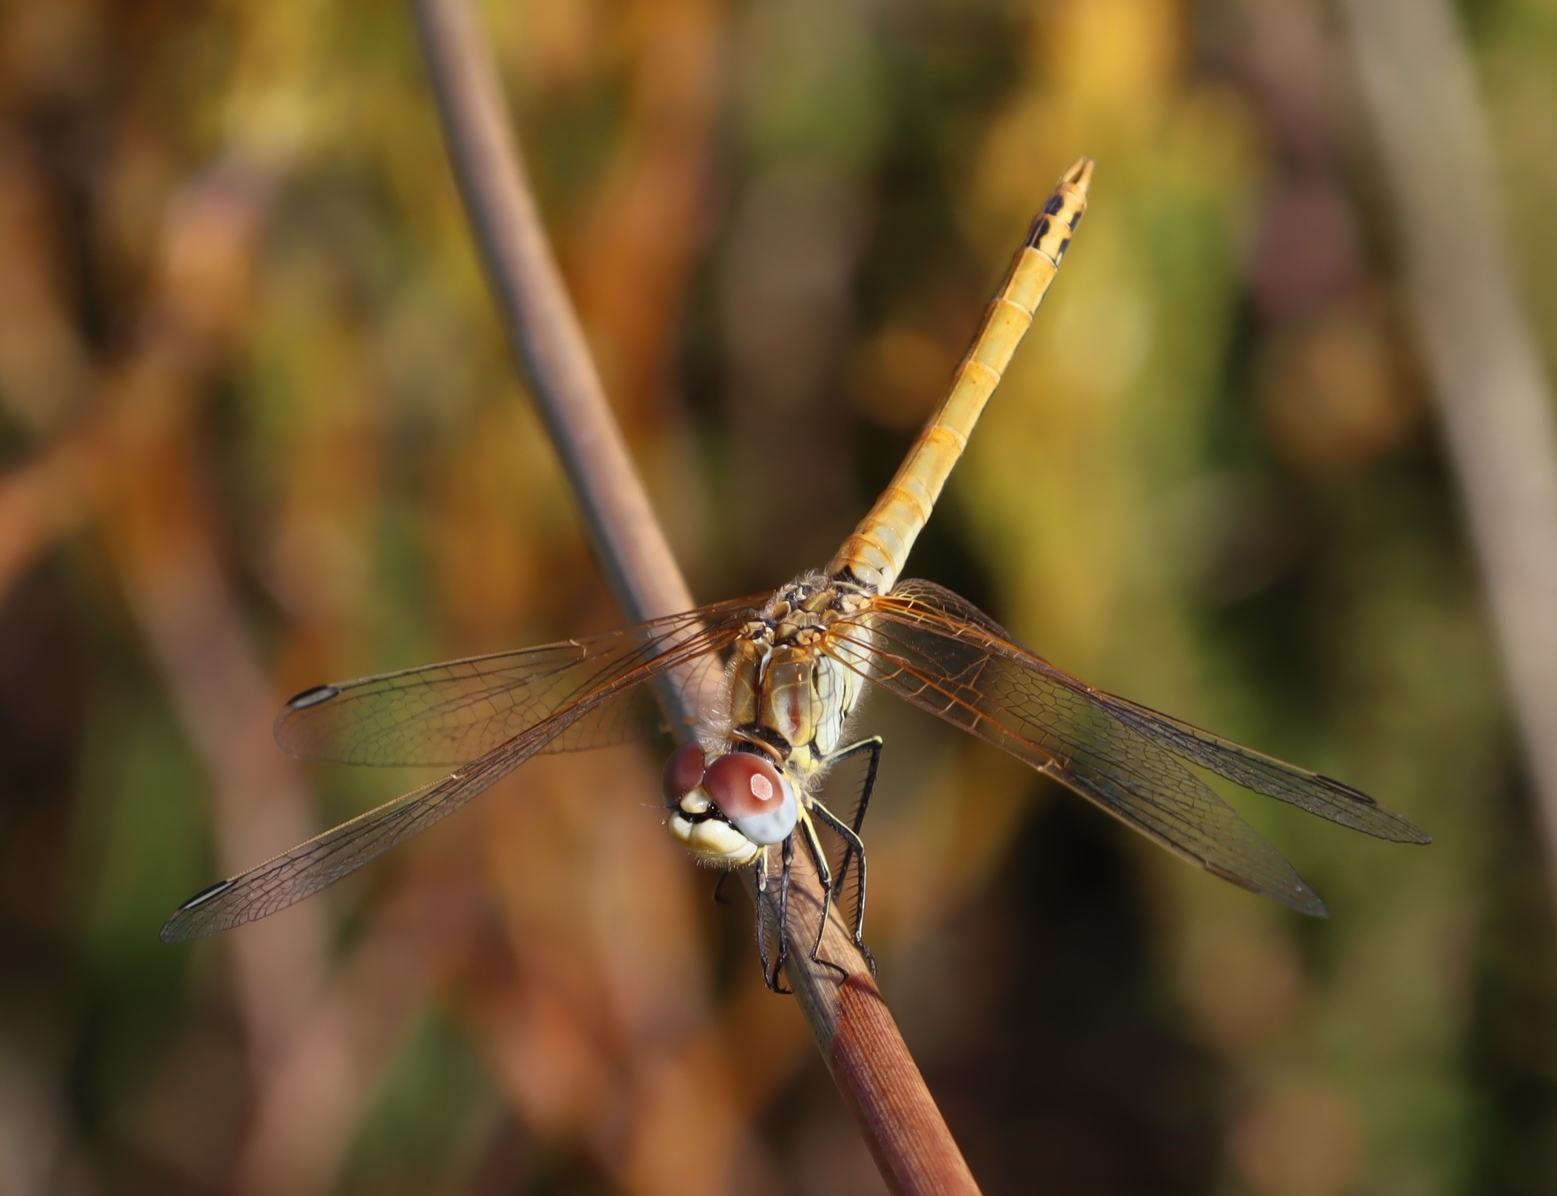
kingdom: Animalia
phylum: Arthropoda
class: Insecta
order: Odonata
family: Libellulidae
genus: Sympetrum
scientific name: Sympetrum fonscolombii
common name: Red-veined darter
